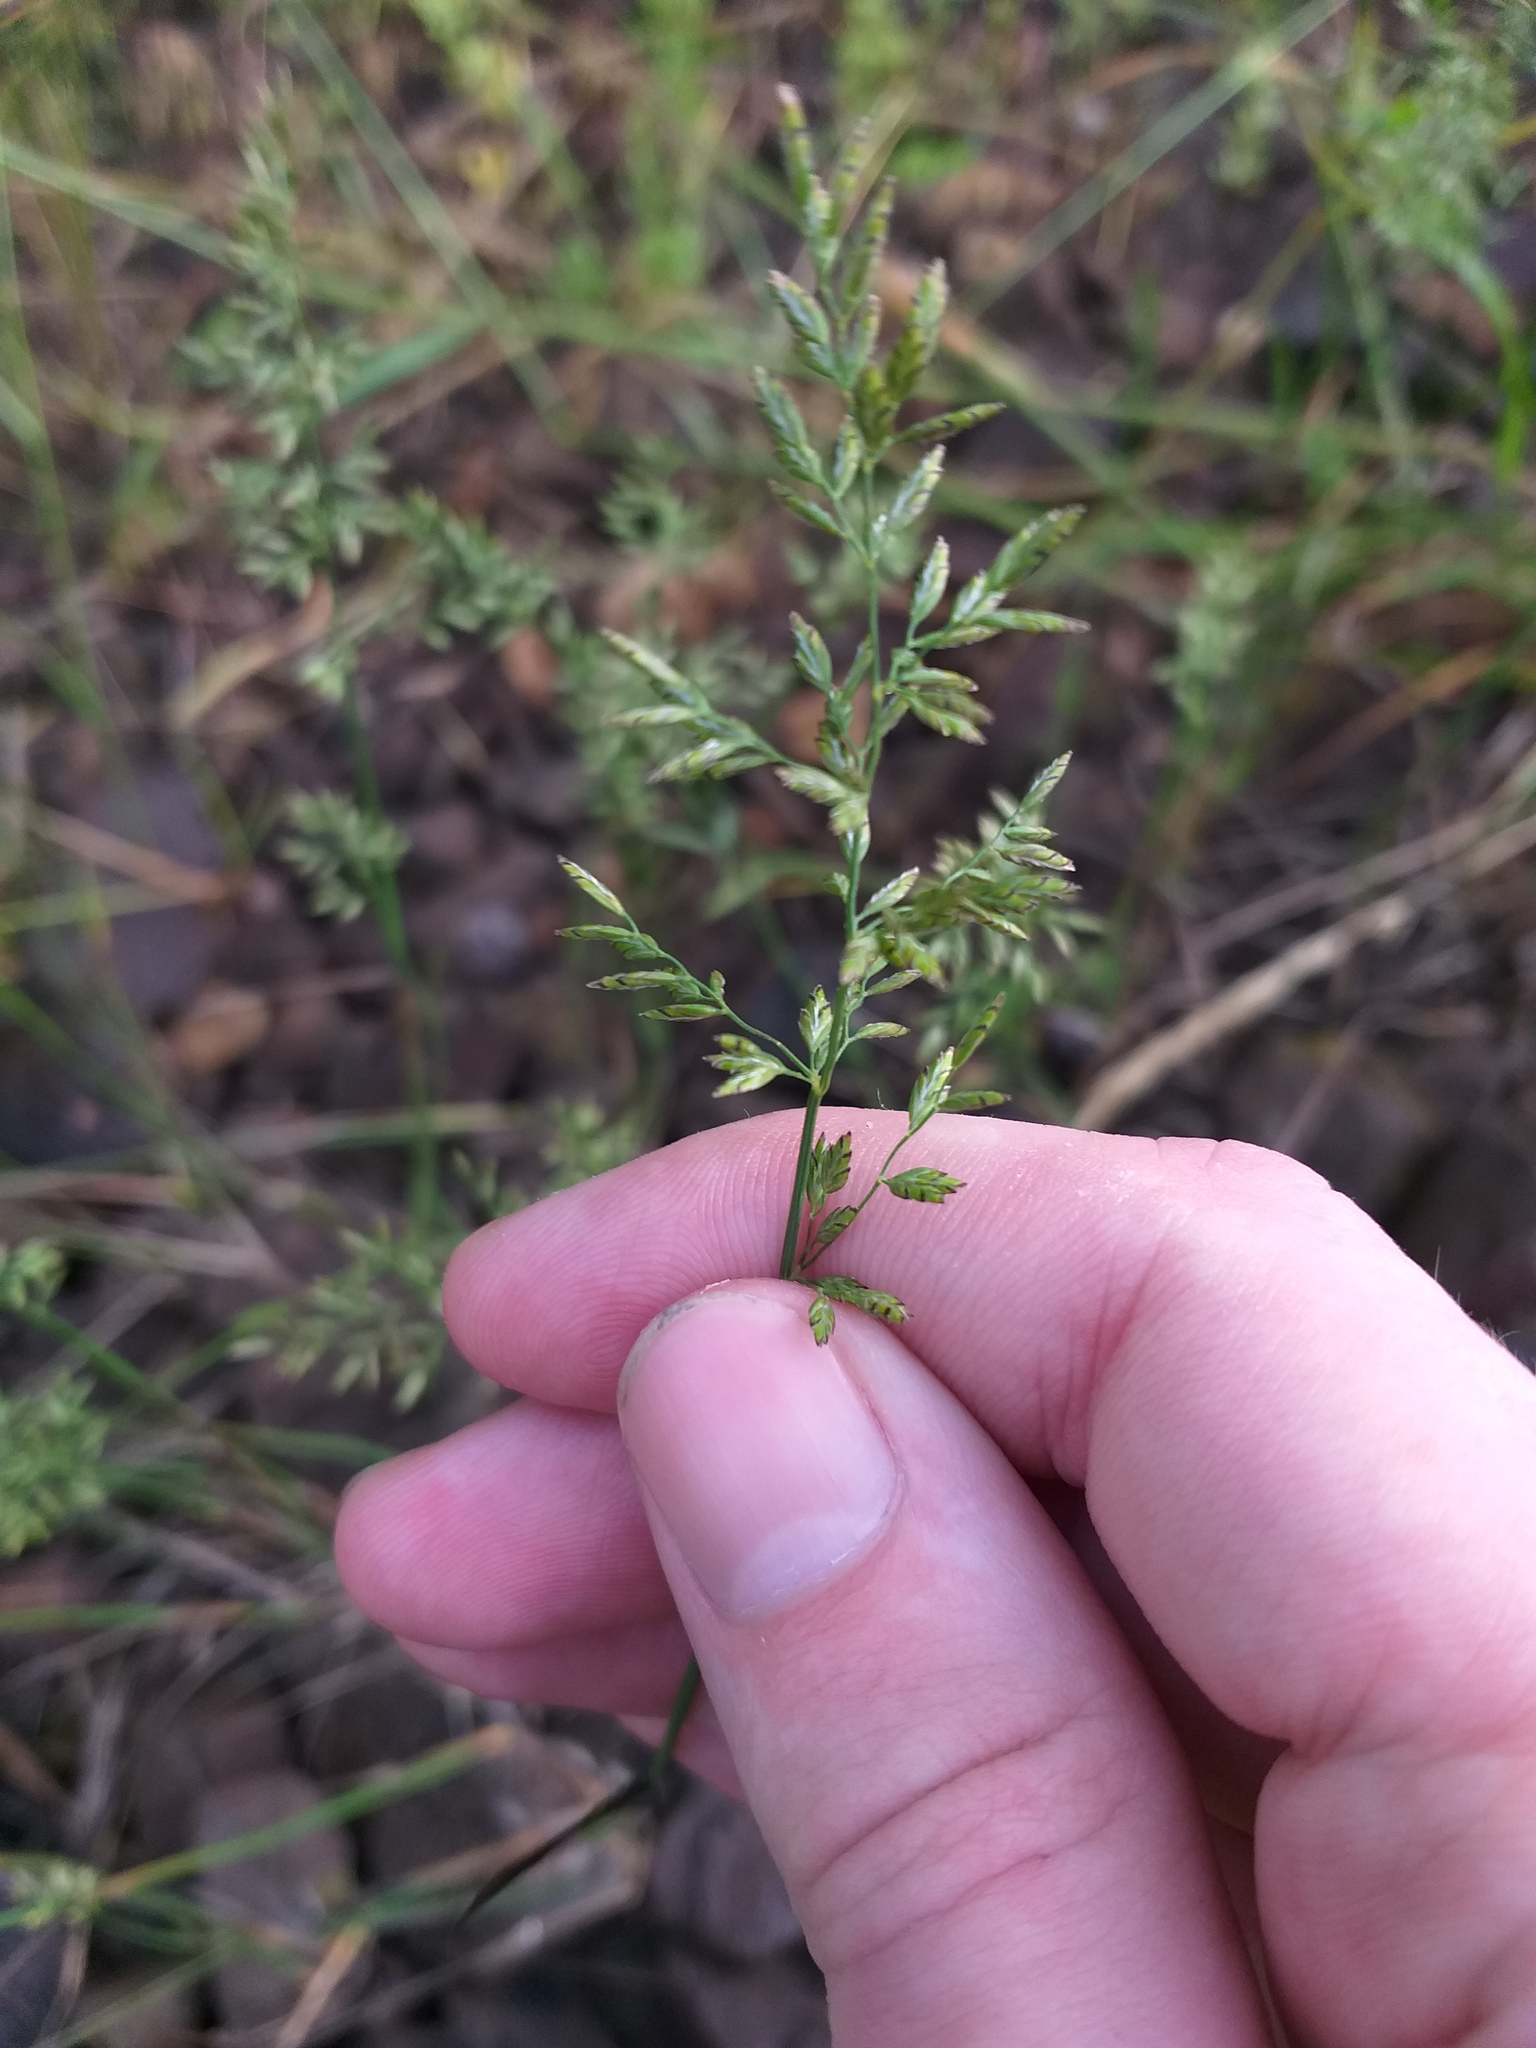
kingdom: Plantae
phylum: Tracheophyta
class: Liliopsida
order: Poales
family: Poaceae
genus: Poa
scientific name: Poa compressa
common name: Canada bluegrass
